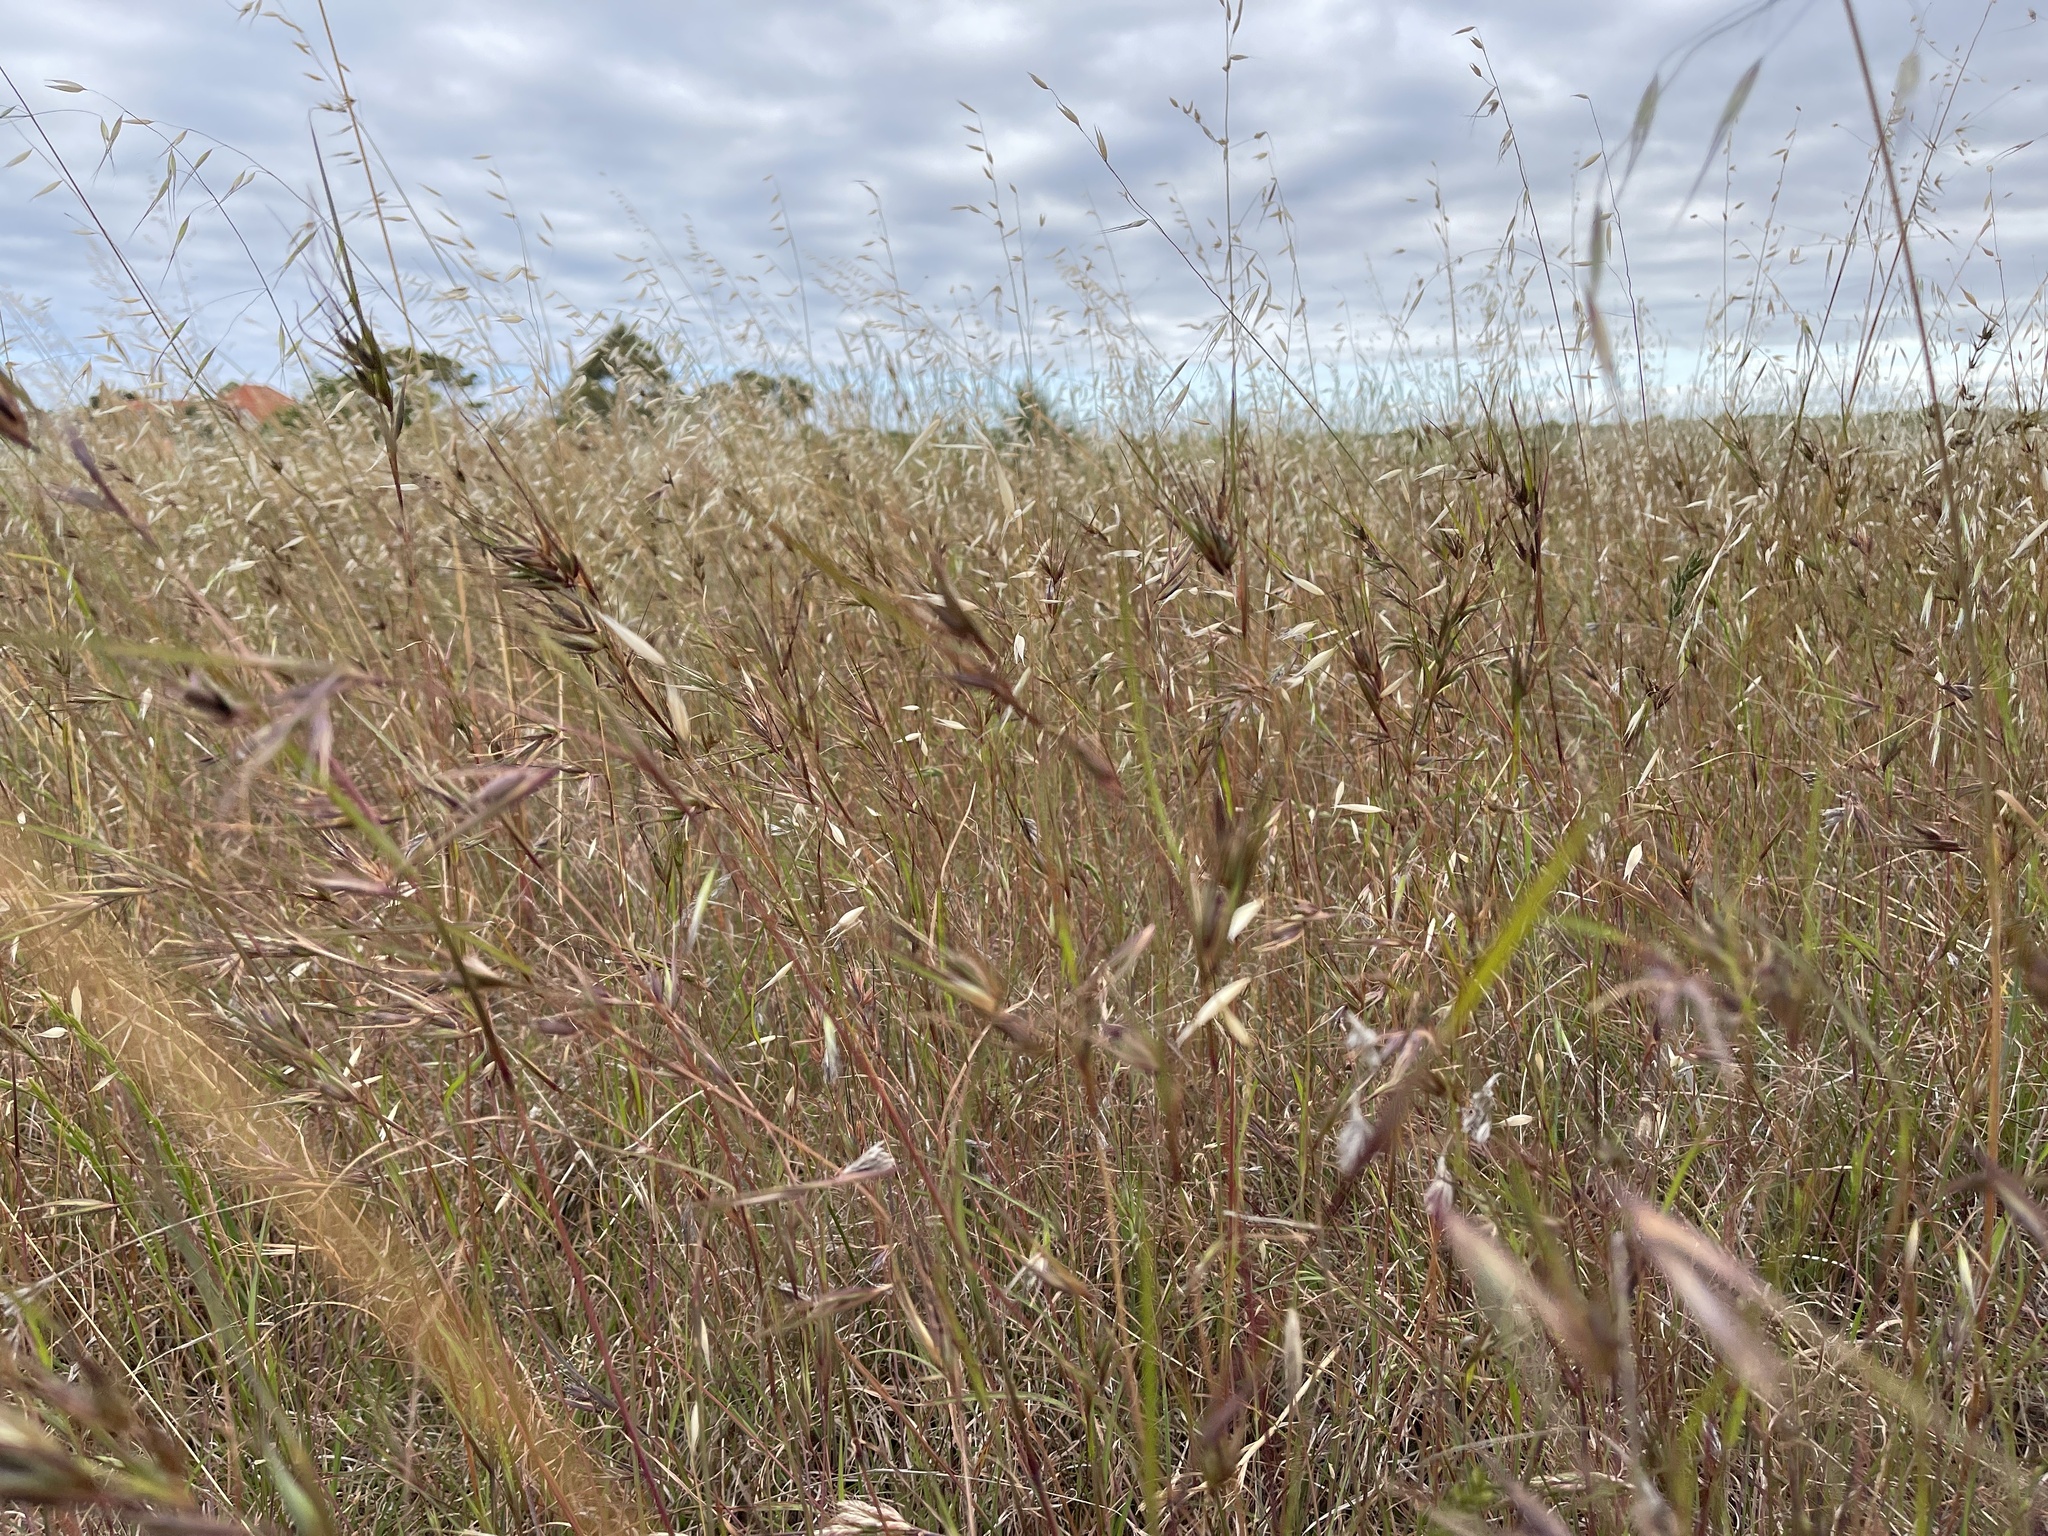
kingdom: Plantae
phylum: Tracheophyta
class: Liliopsida
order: Poales
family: Poaceae
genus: Themeda
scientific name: Themeda triandra
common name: Kangaroo grass
